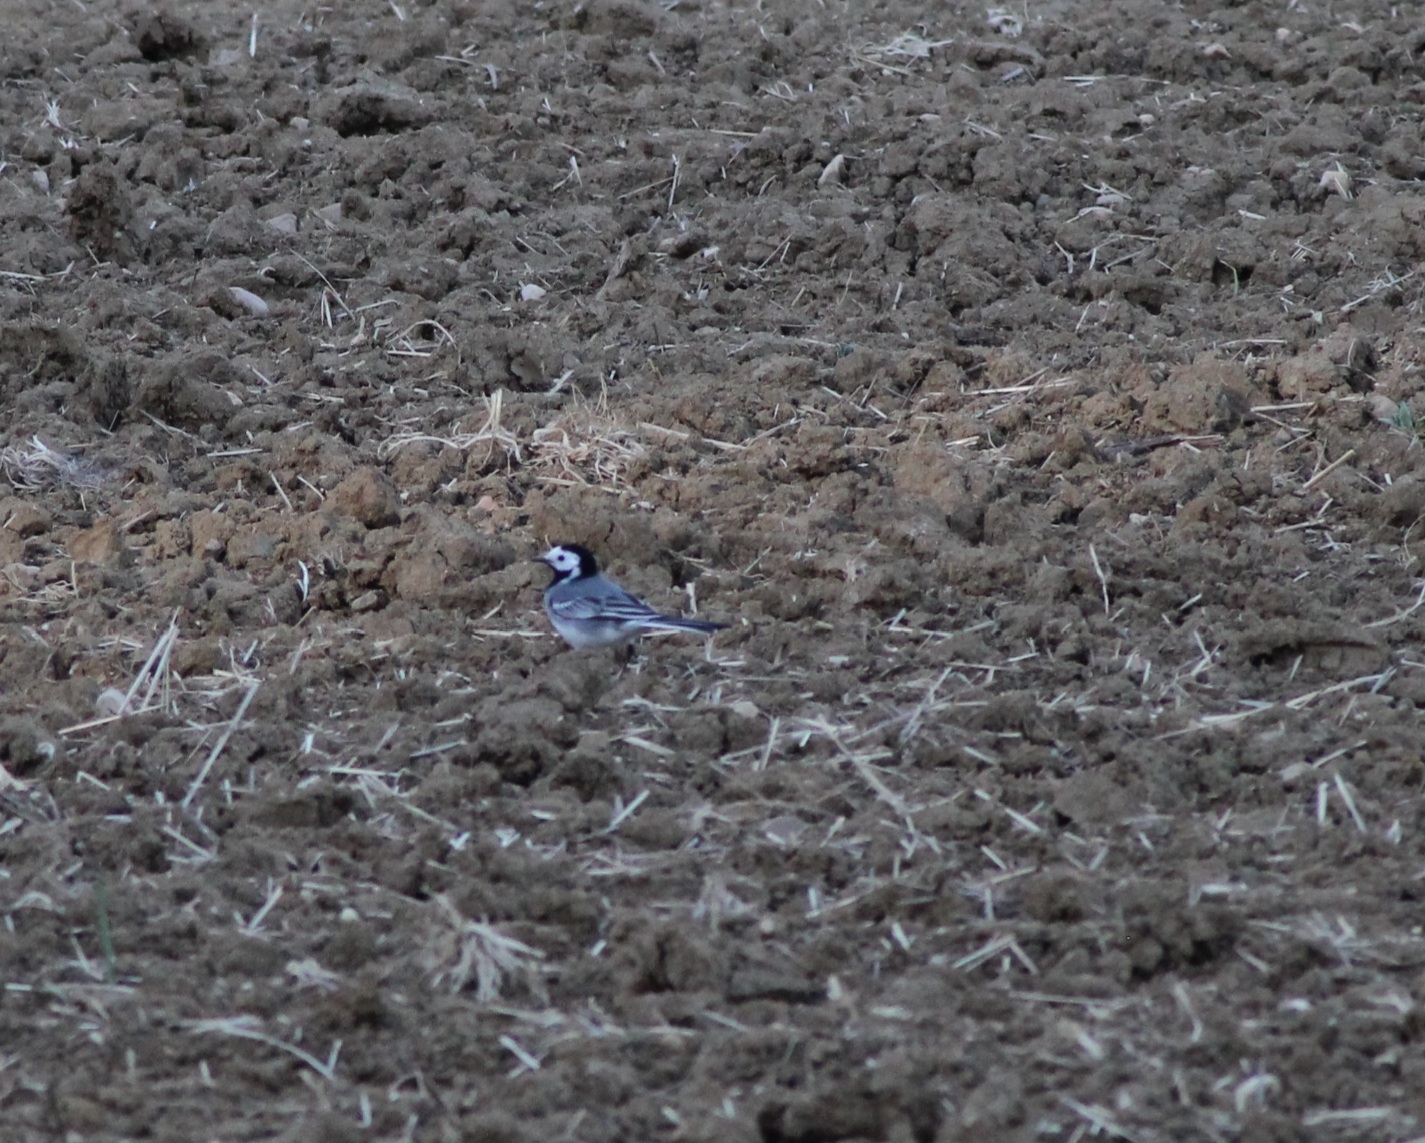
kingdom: Animalia
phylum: Chordata
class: Aves
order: Passeriformes
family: Motacillidae
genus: Motacilla
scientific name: Motacilla alba
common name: White wagtail
